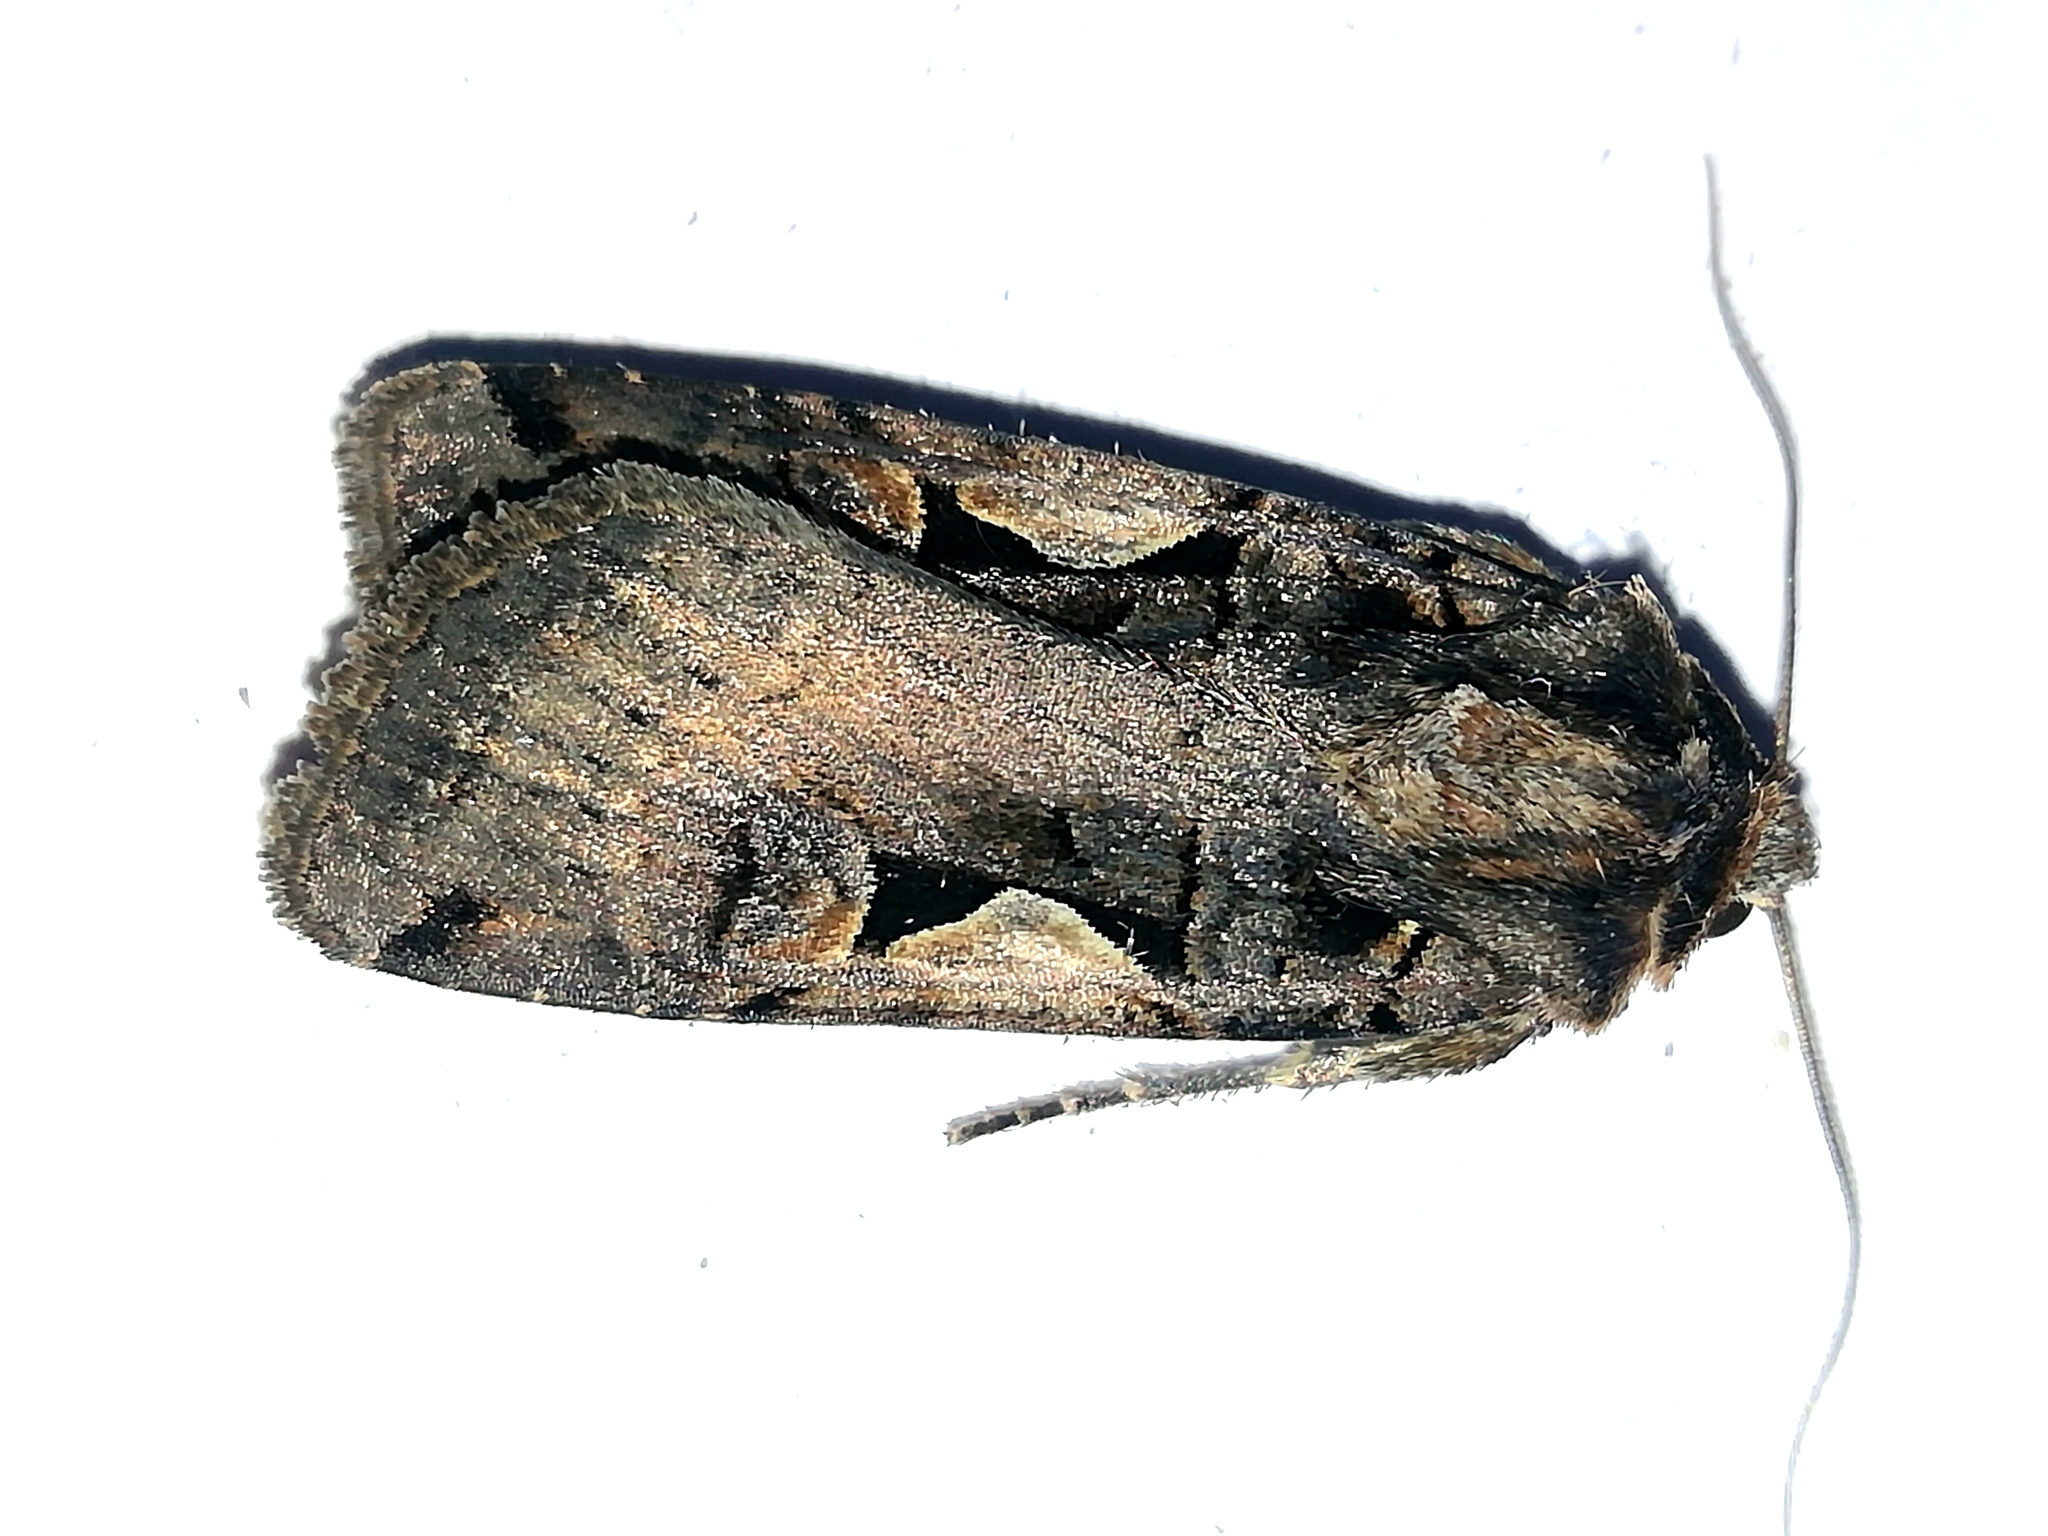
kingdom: Animalia
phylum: Arthropoda
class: Insecta
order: Lepidoptera
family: Noctuidae
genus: Xestia
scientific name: Xestia c-nigrum
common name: Setaceous hebrew character
